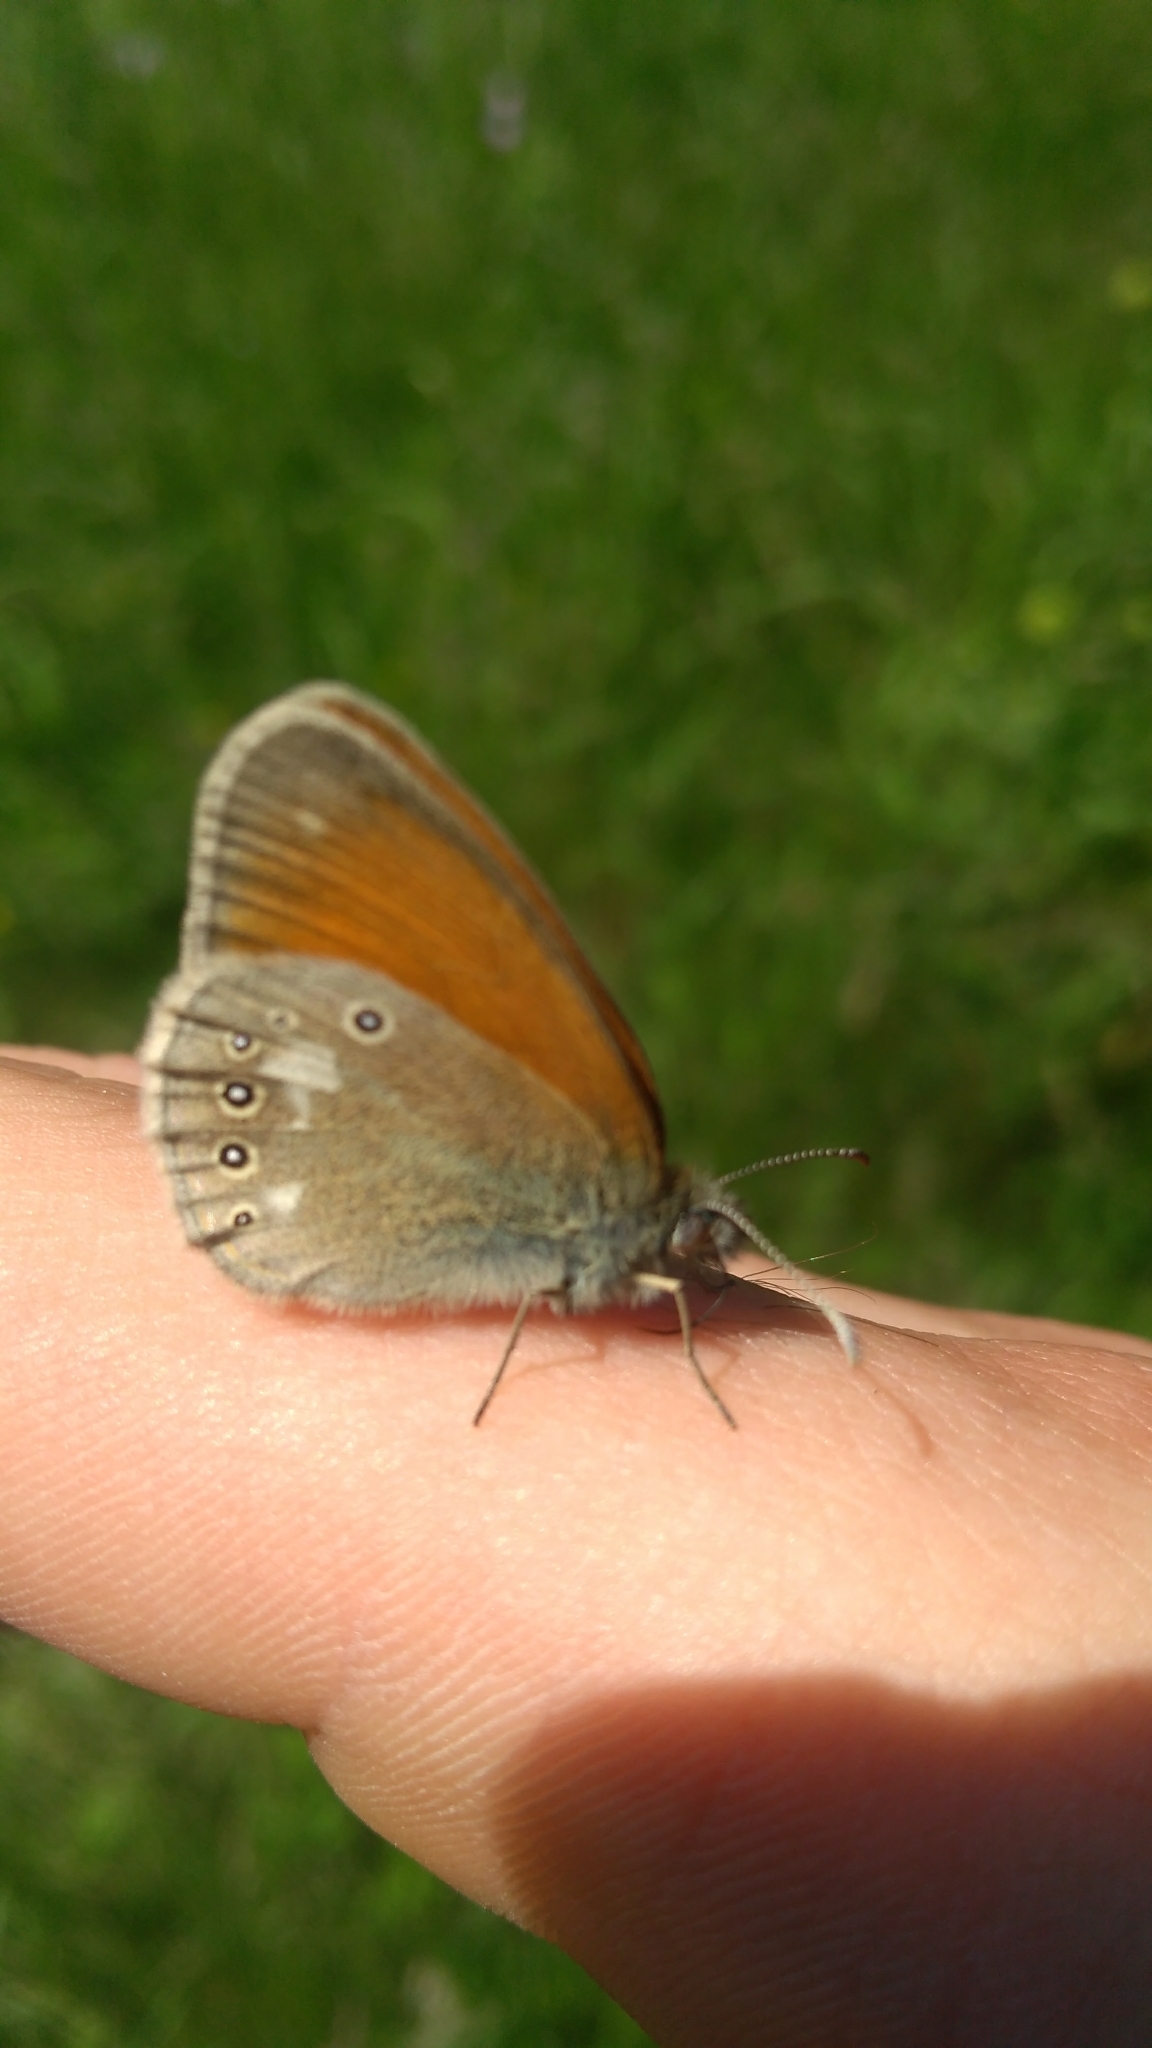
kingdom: Animalia
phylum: Arthropoda
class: Insecta
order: Lepidoptera
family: Nymphalidae
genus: Coenonympha
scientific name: Coenonympha iphis
